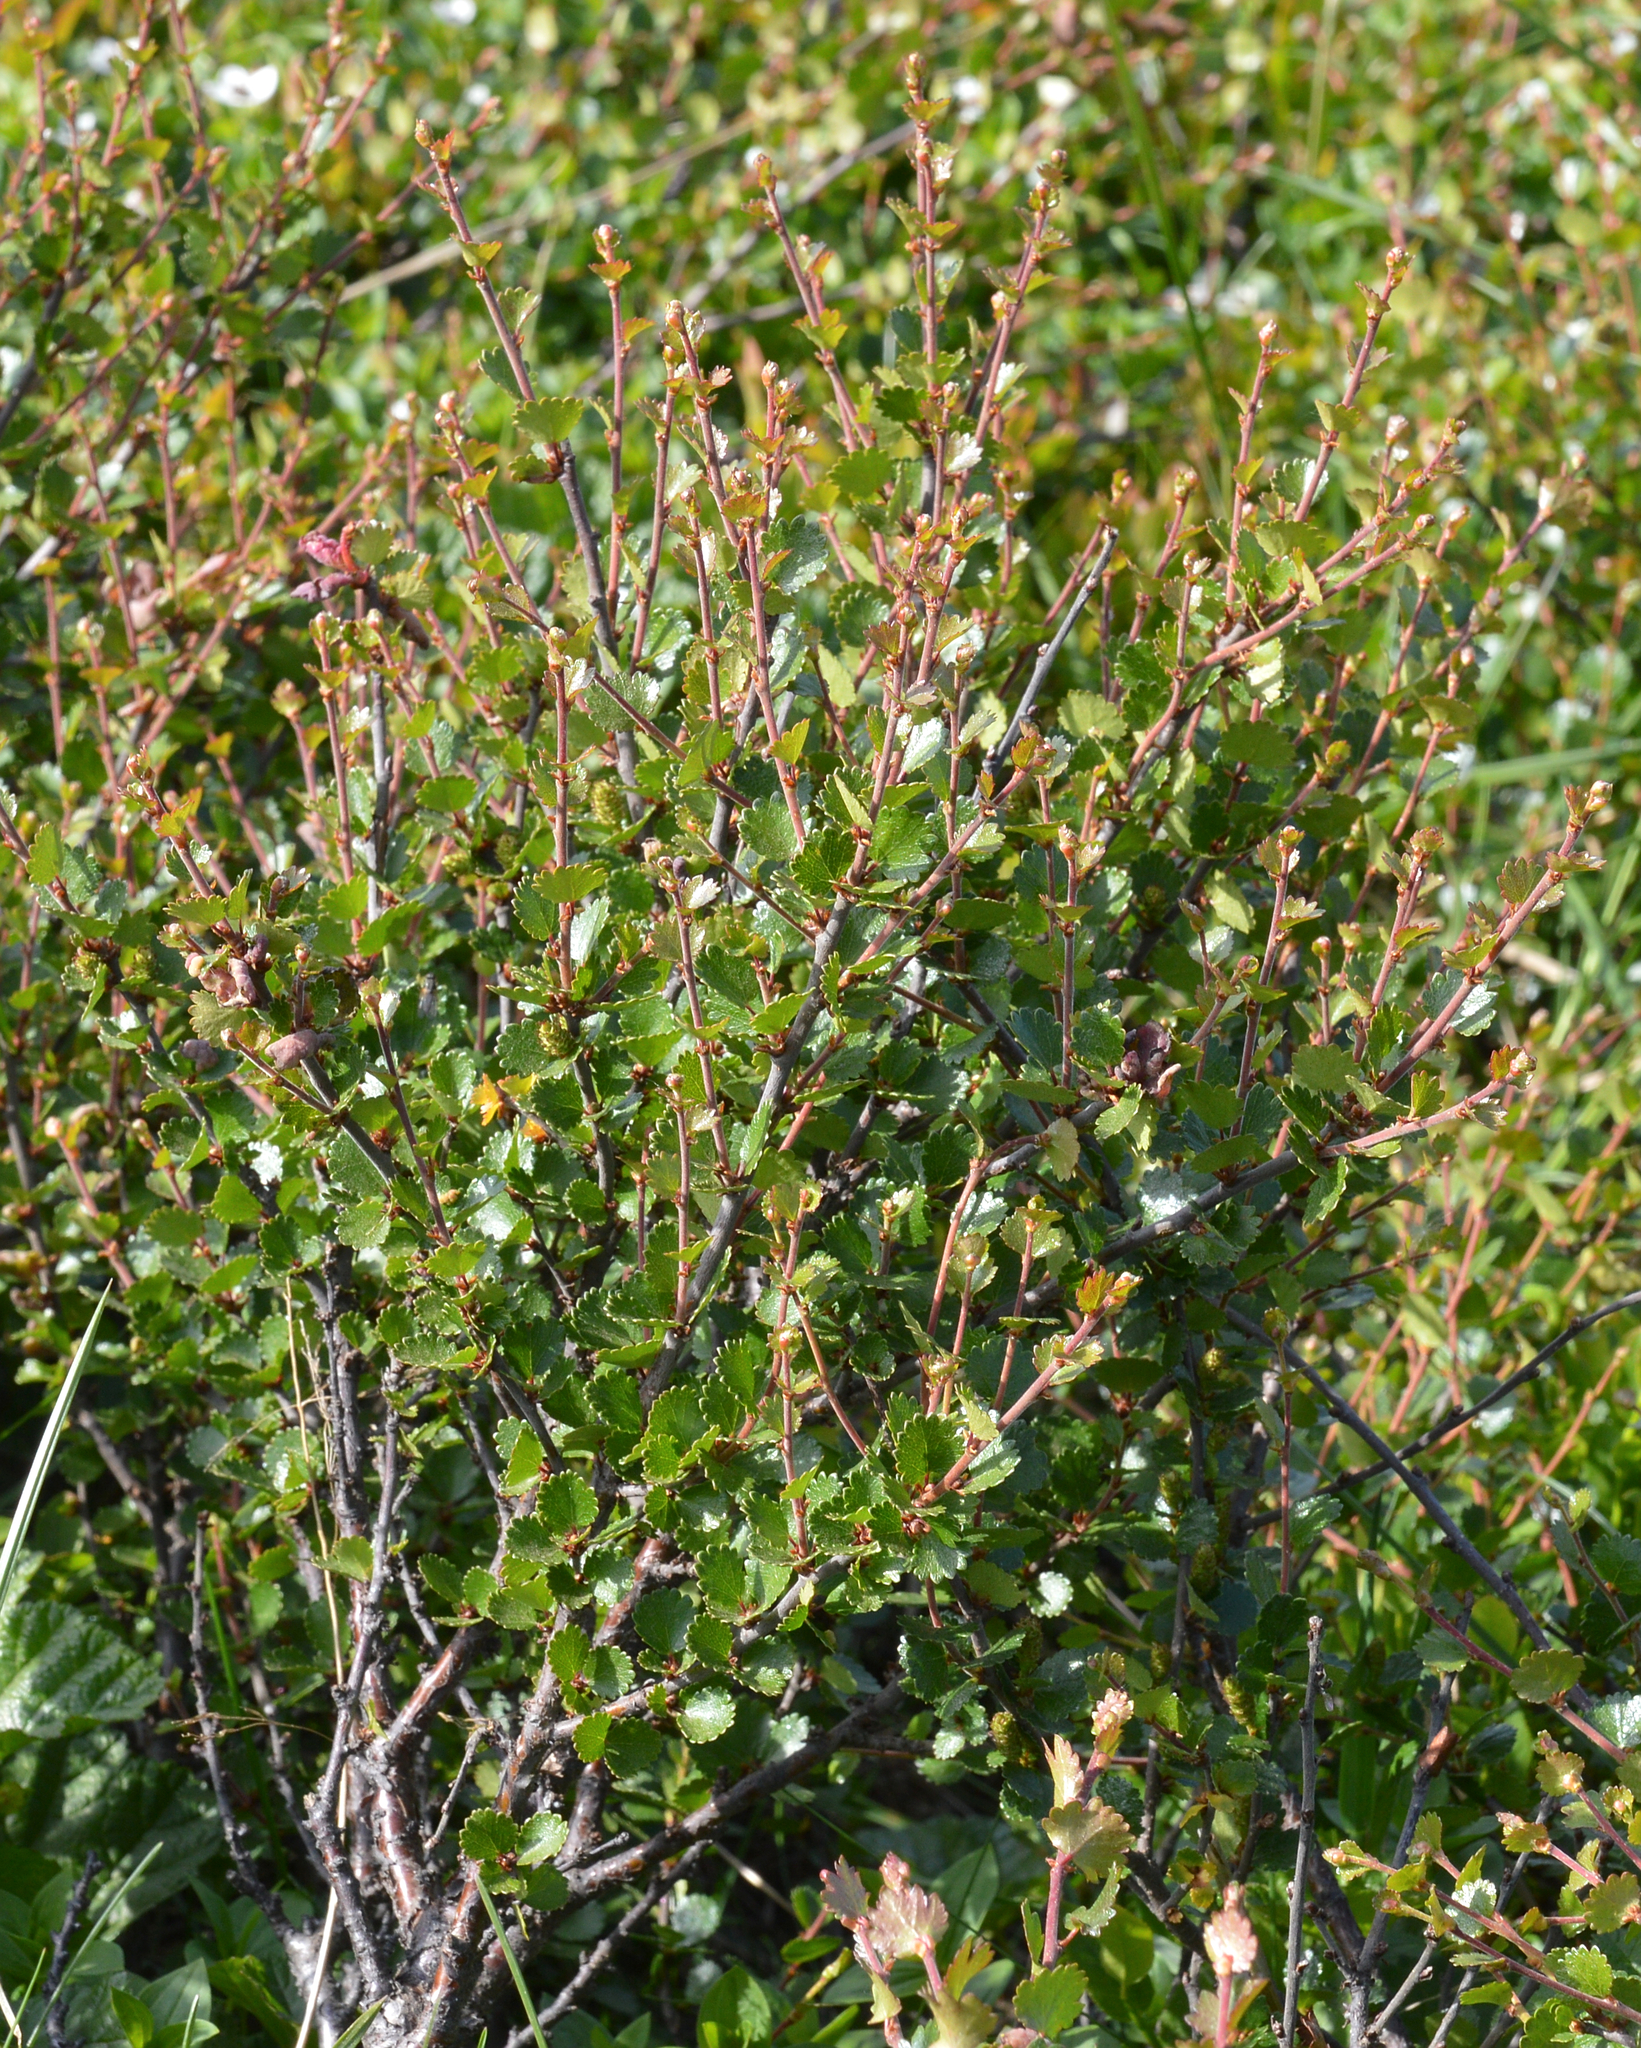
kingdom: Plantae
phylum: Tracheophyta
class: Magnoliopsida
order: Fagales
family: Betulaceae
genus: Betula
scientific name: Betula nana
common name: Arctic dwarf birch
